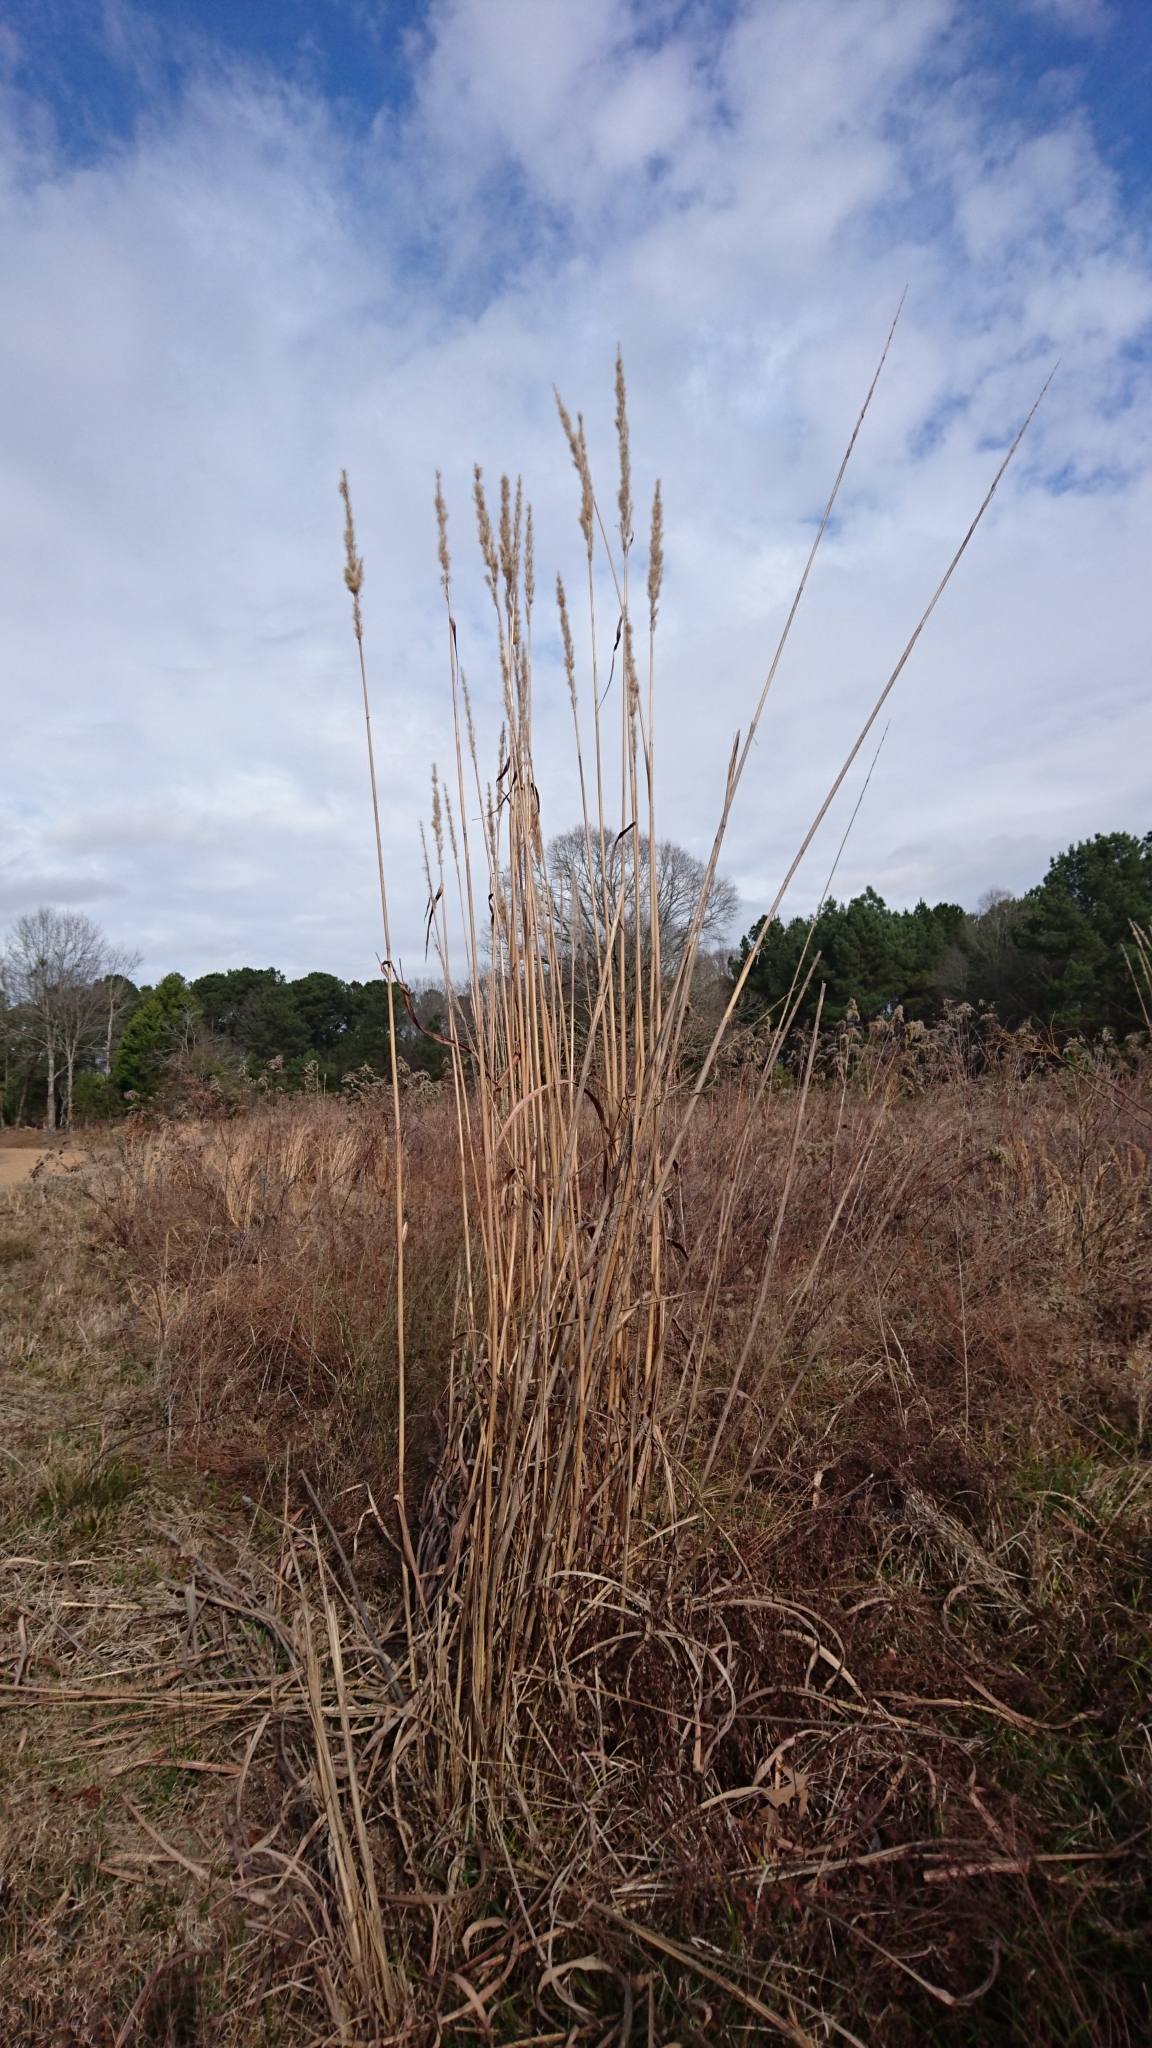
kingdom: Plantae
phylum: Tracheophyta
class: Liliopsida
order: Poales
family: Poaceae
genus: Erianthus
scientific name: Erianthus giganteus
